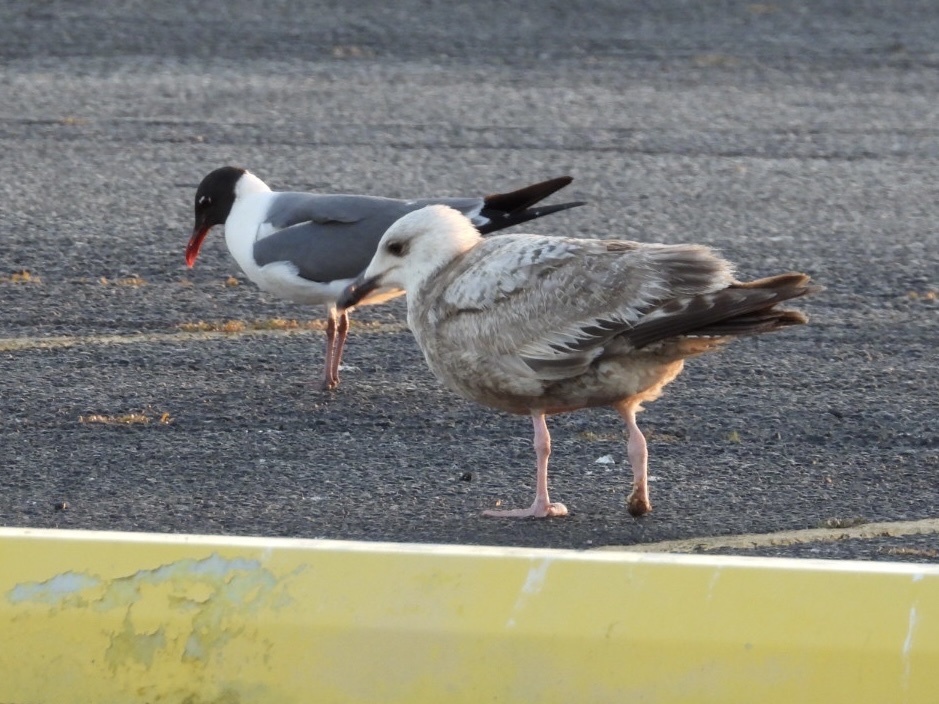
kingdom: Animalia
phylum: Chordata
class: Aves
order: Charadriiformes
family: Laridae
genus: Larus
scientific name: Larus argentatus
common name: Herring gull
